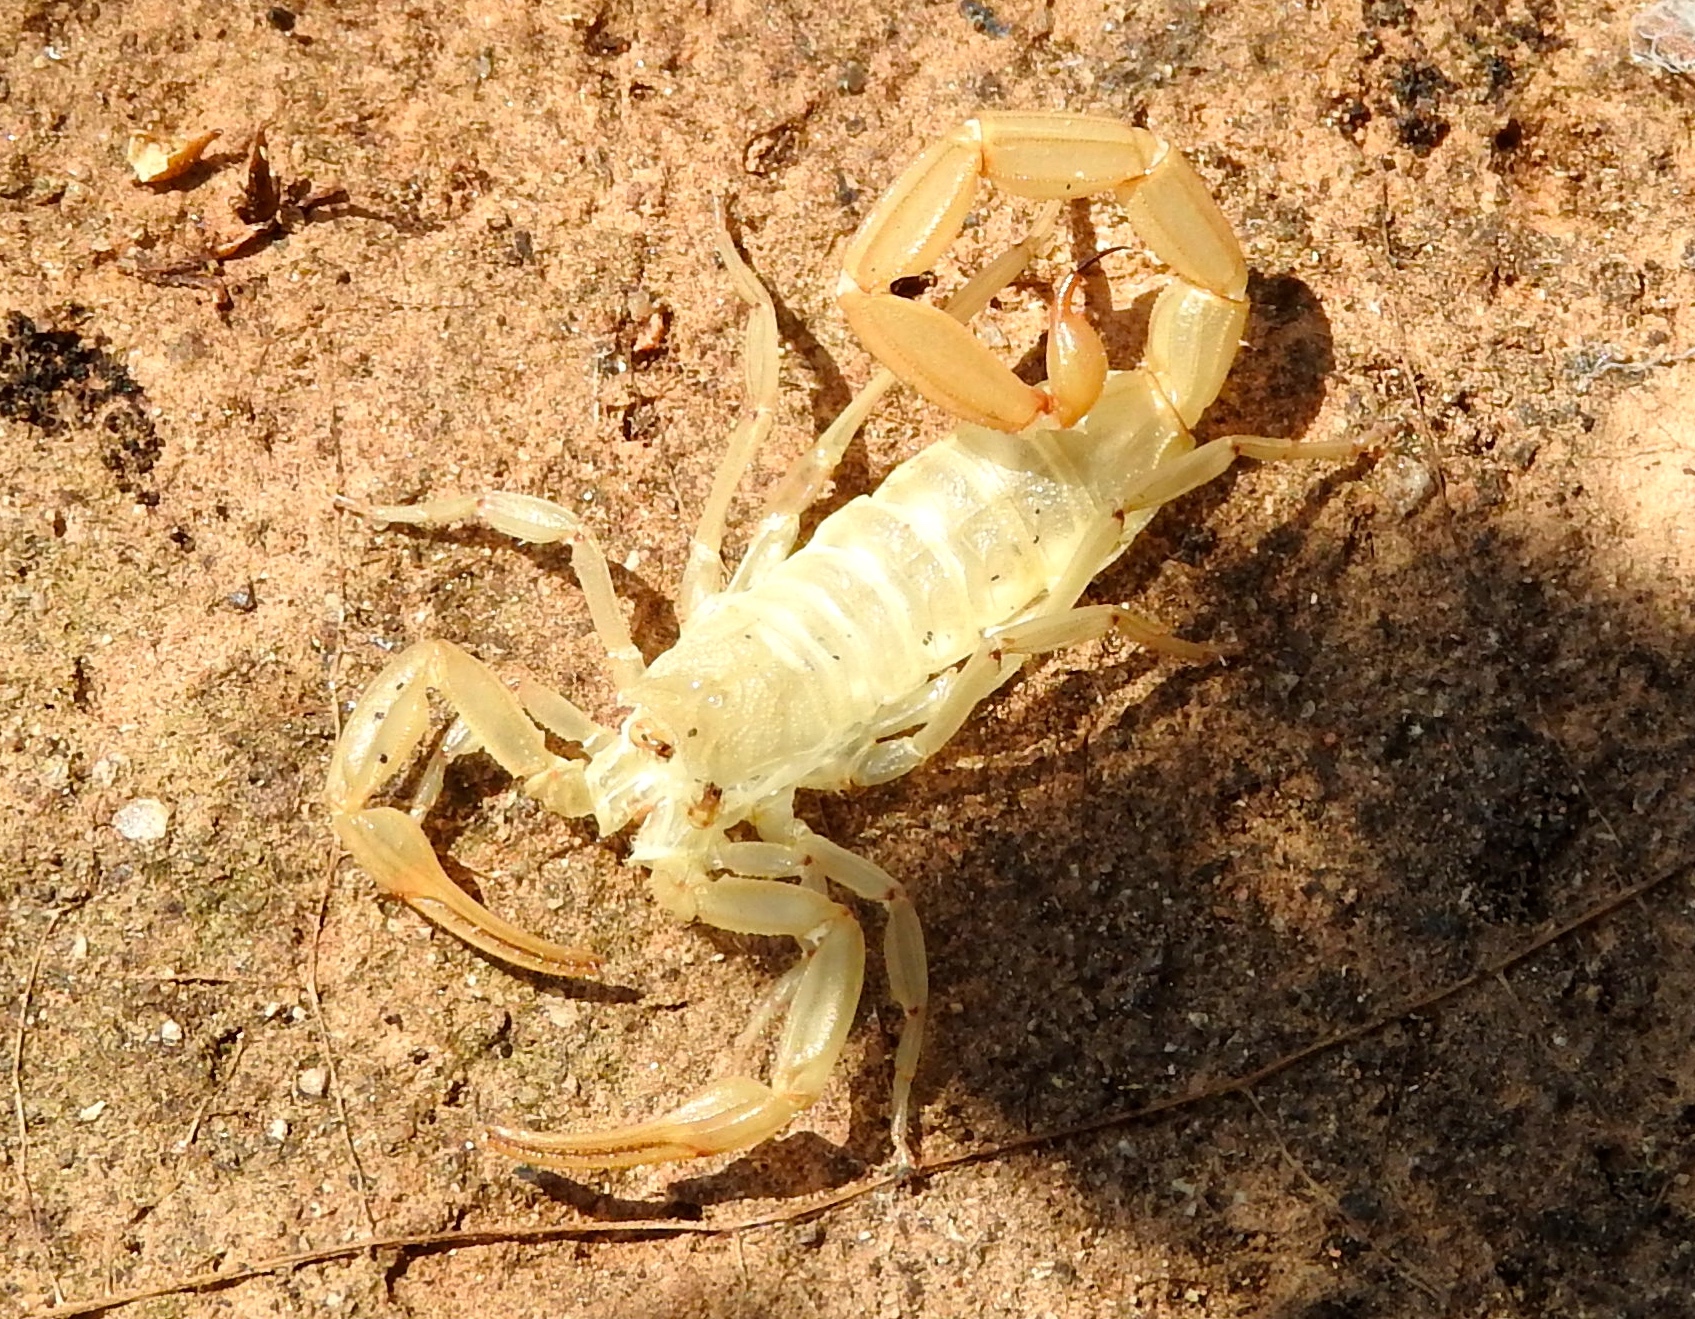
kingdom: Animalia
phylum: Arthropoda
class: Arachnida
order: Scorpiones
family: Buthidae
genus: Centruroides
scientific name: Centruroides baldazoi
